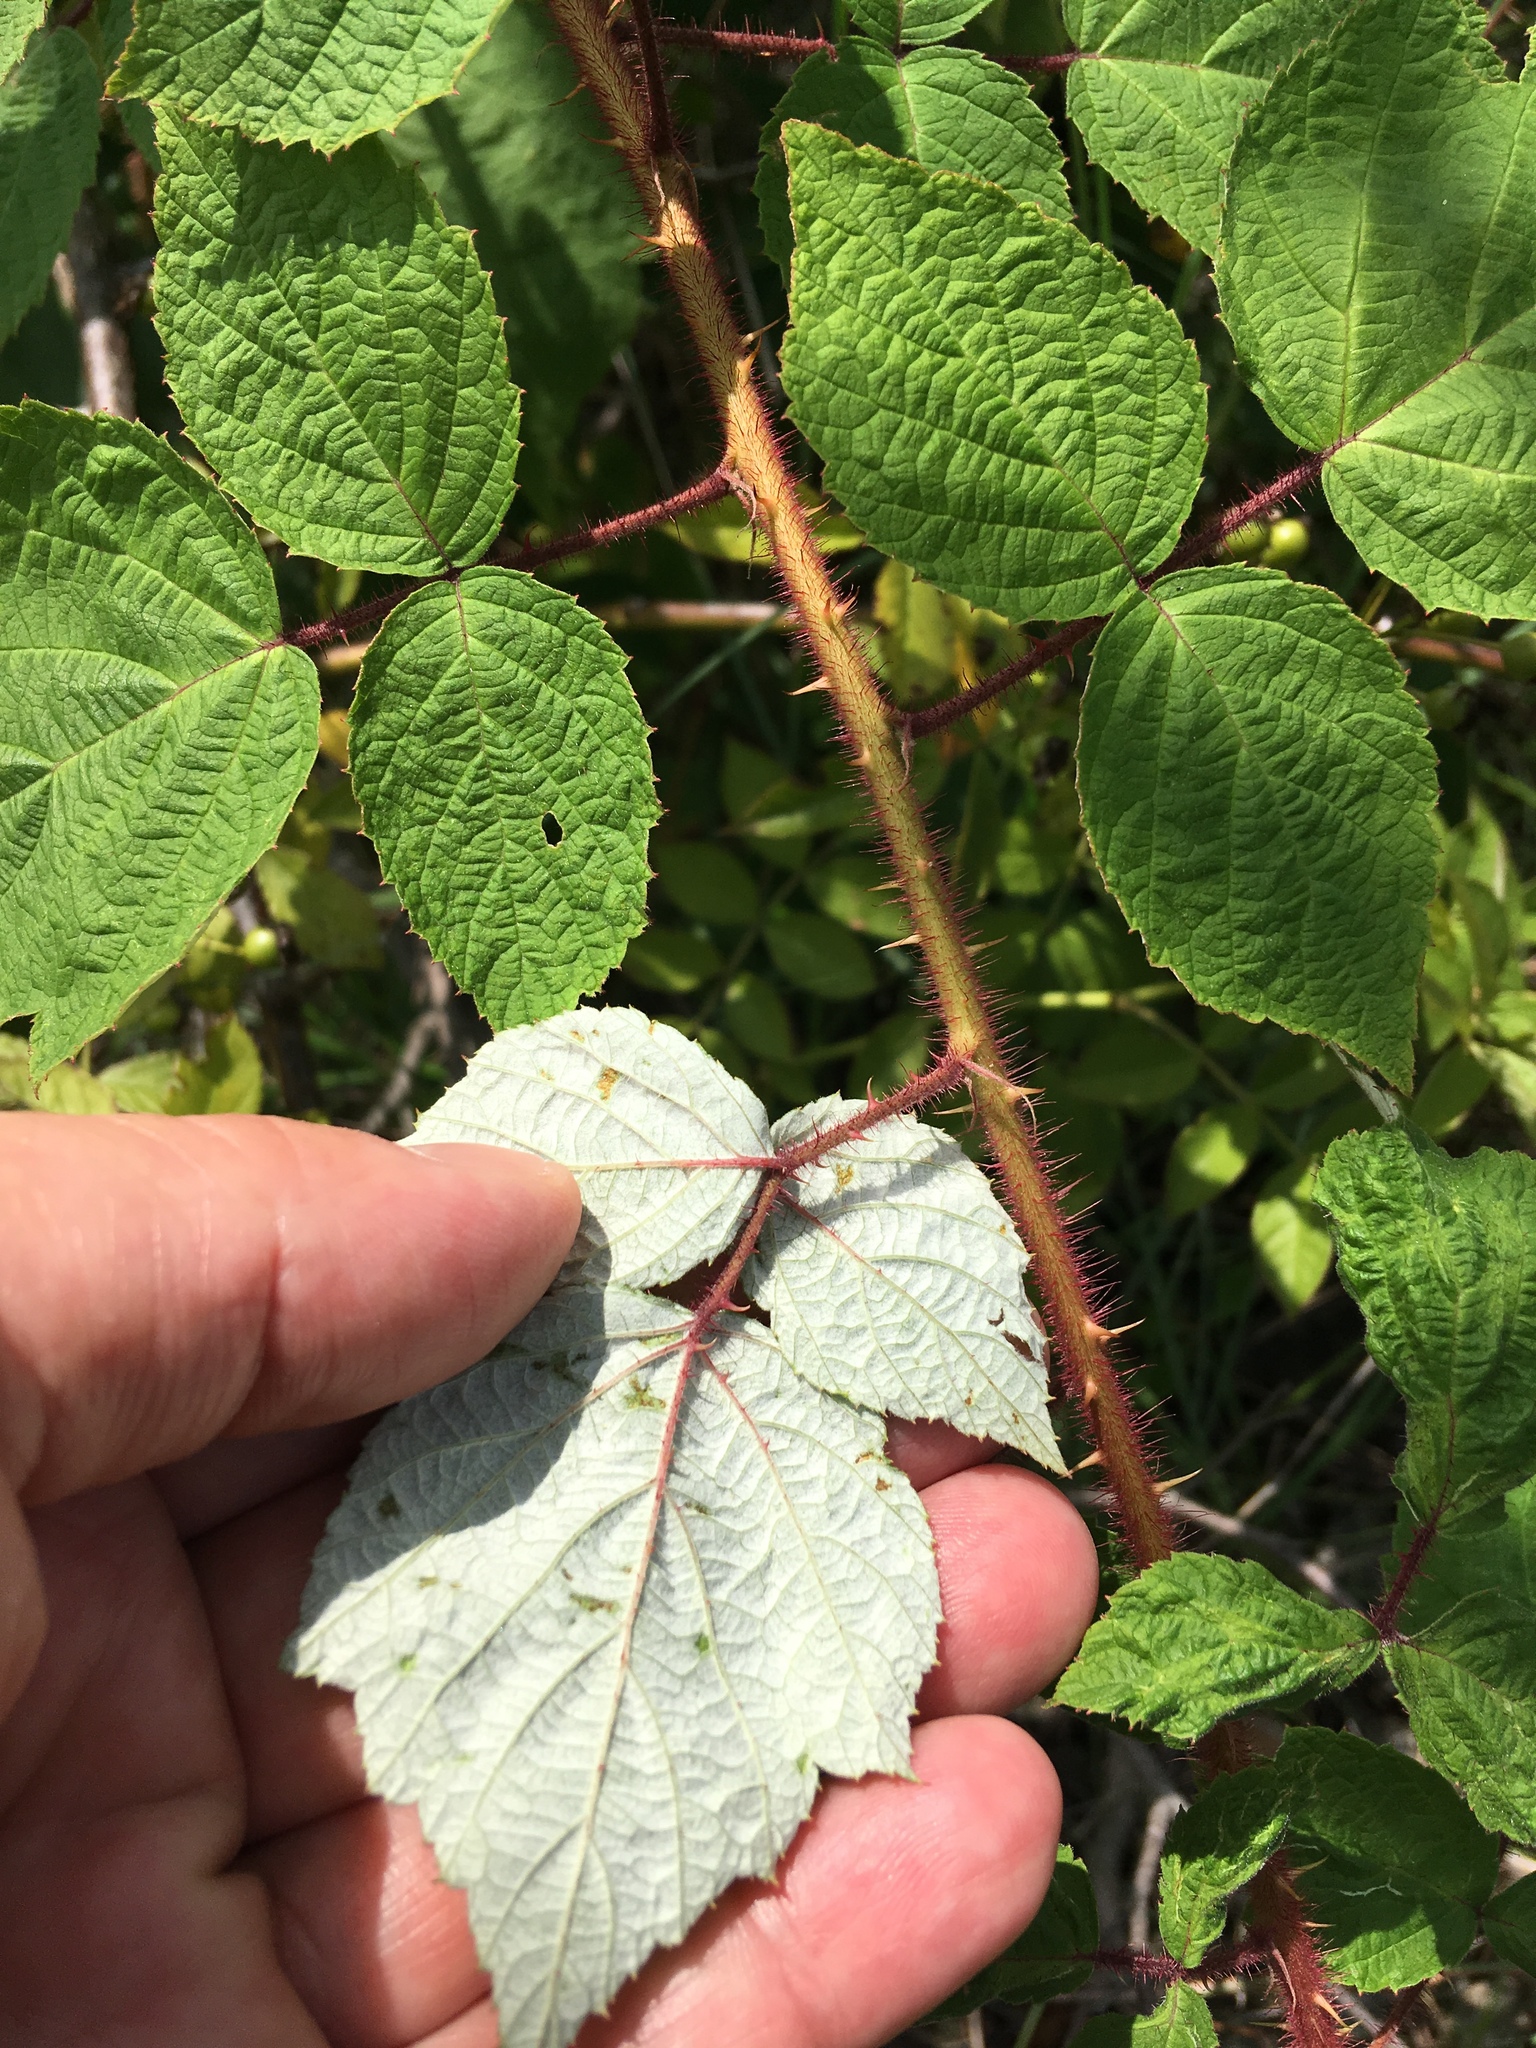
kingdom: Plantae
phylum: Tracheophyta
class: Magnoliopsida
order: Rosales
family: Rosaceae
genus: Rubus
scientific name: Rubus phoenicolasius
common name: Japanese wineberry
